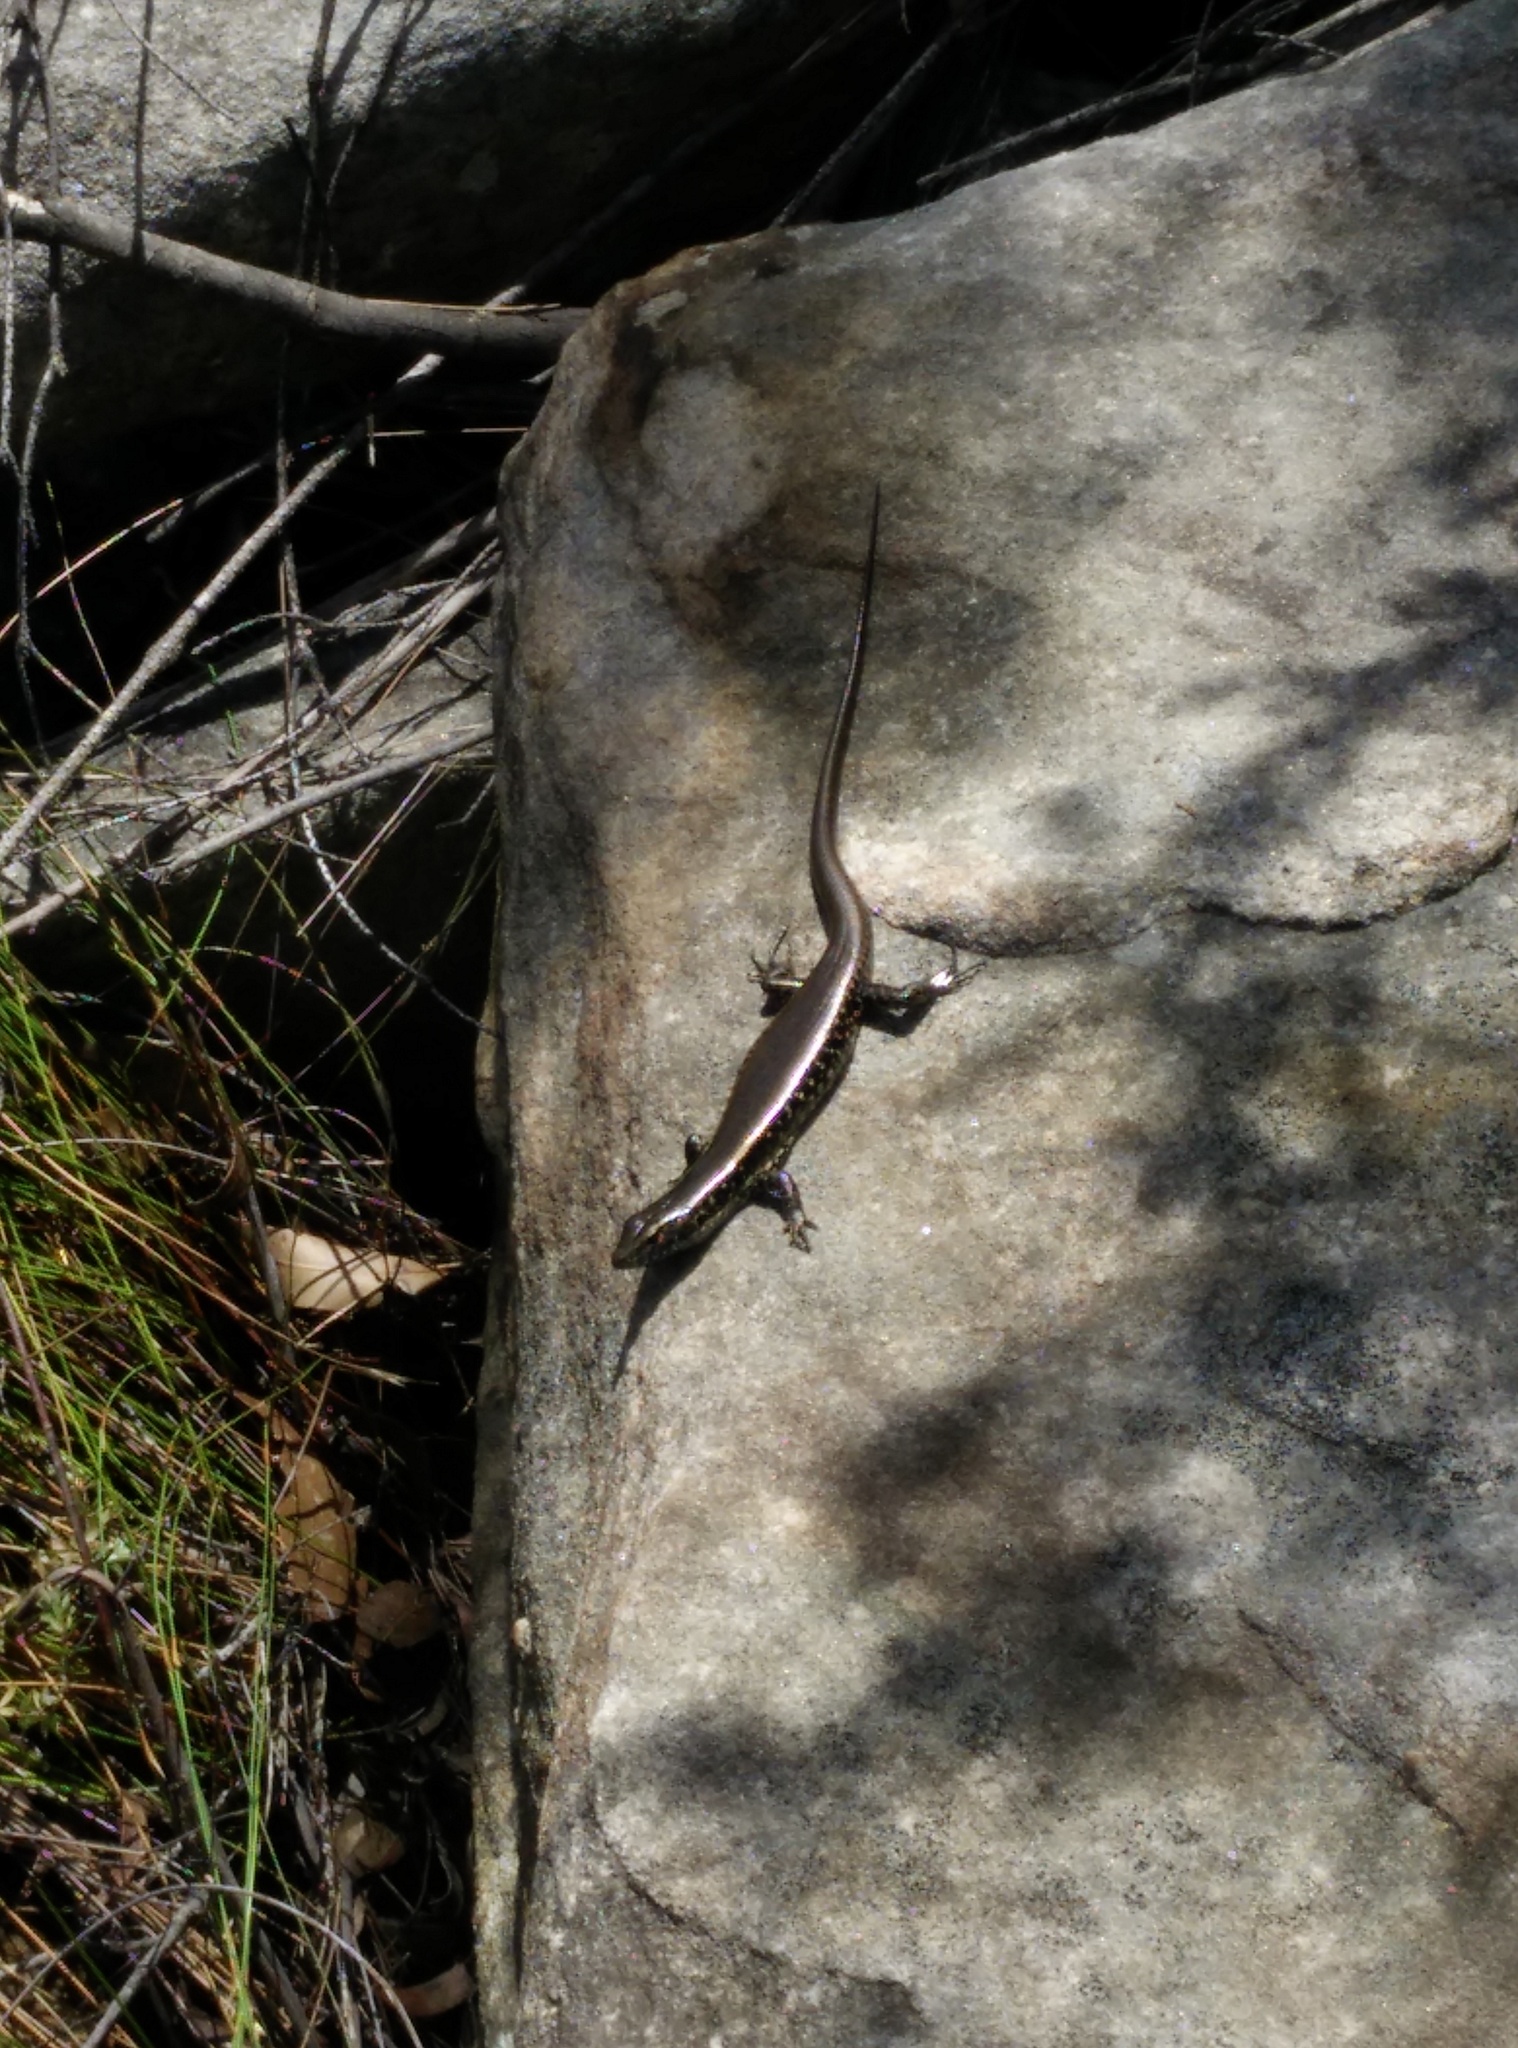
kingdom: Animalia
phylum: Chordata
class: Squamata
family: Scincidae
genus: Eulamprus
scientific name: Eulamprus quoyii
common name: Eastern water skink
